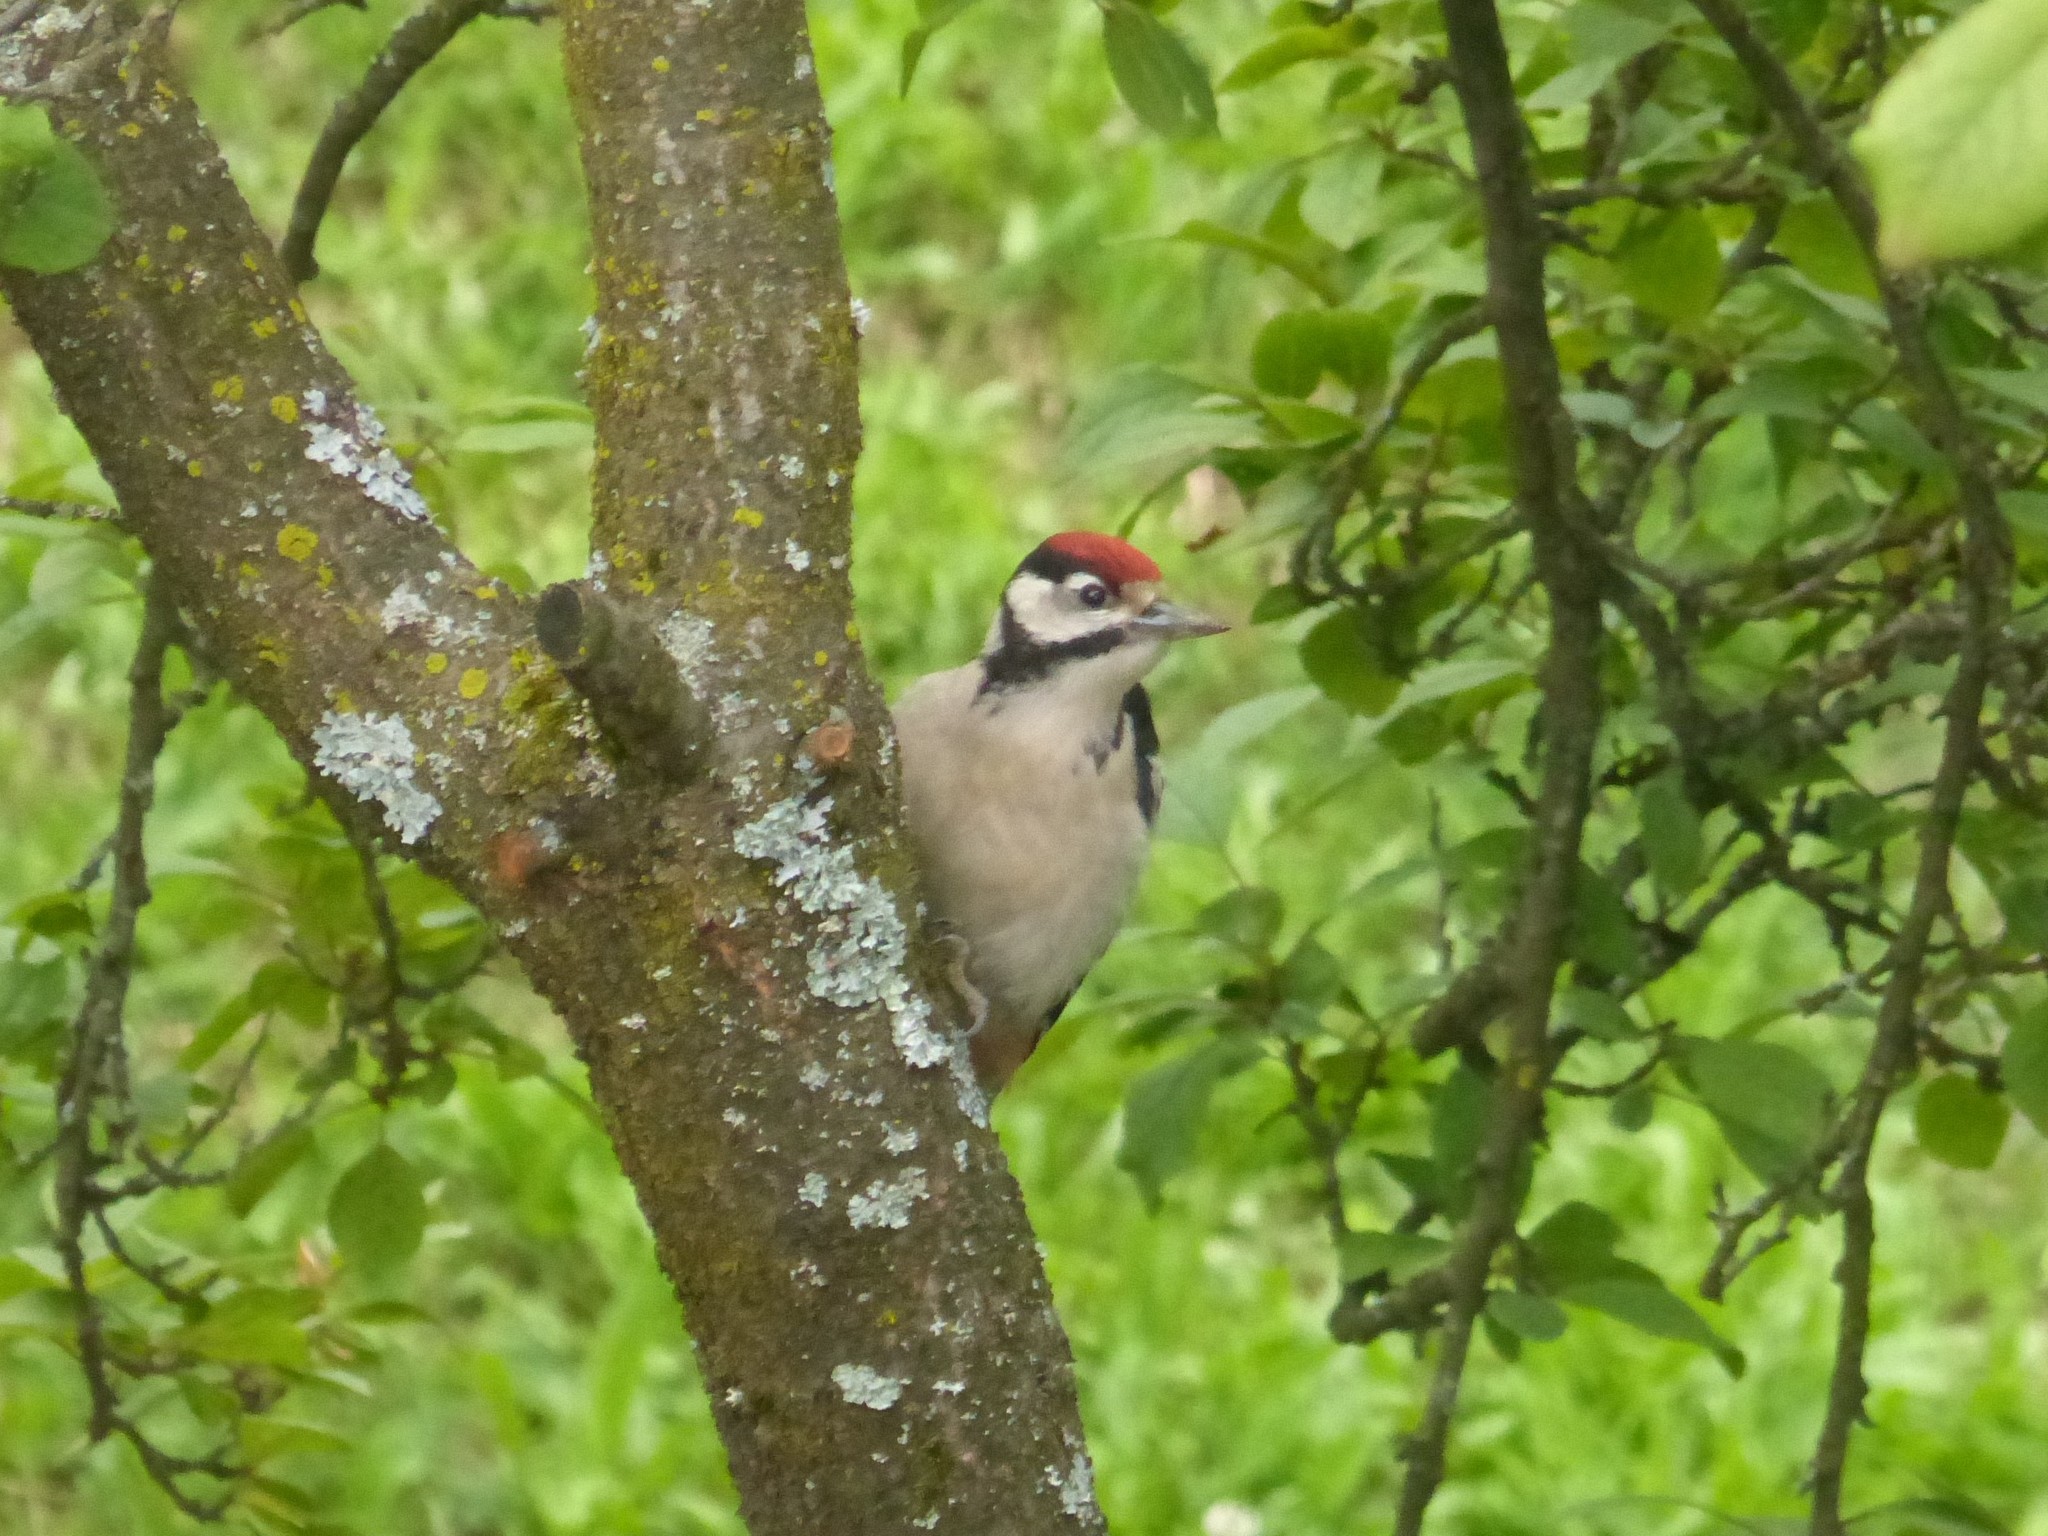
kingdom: Animalia
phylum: Chordata
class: Aves
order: Piciformes
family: Picidae
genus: Dendrocopos
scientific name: Dendrocopos major
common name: Great spotted woodpecker
